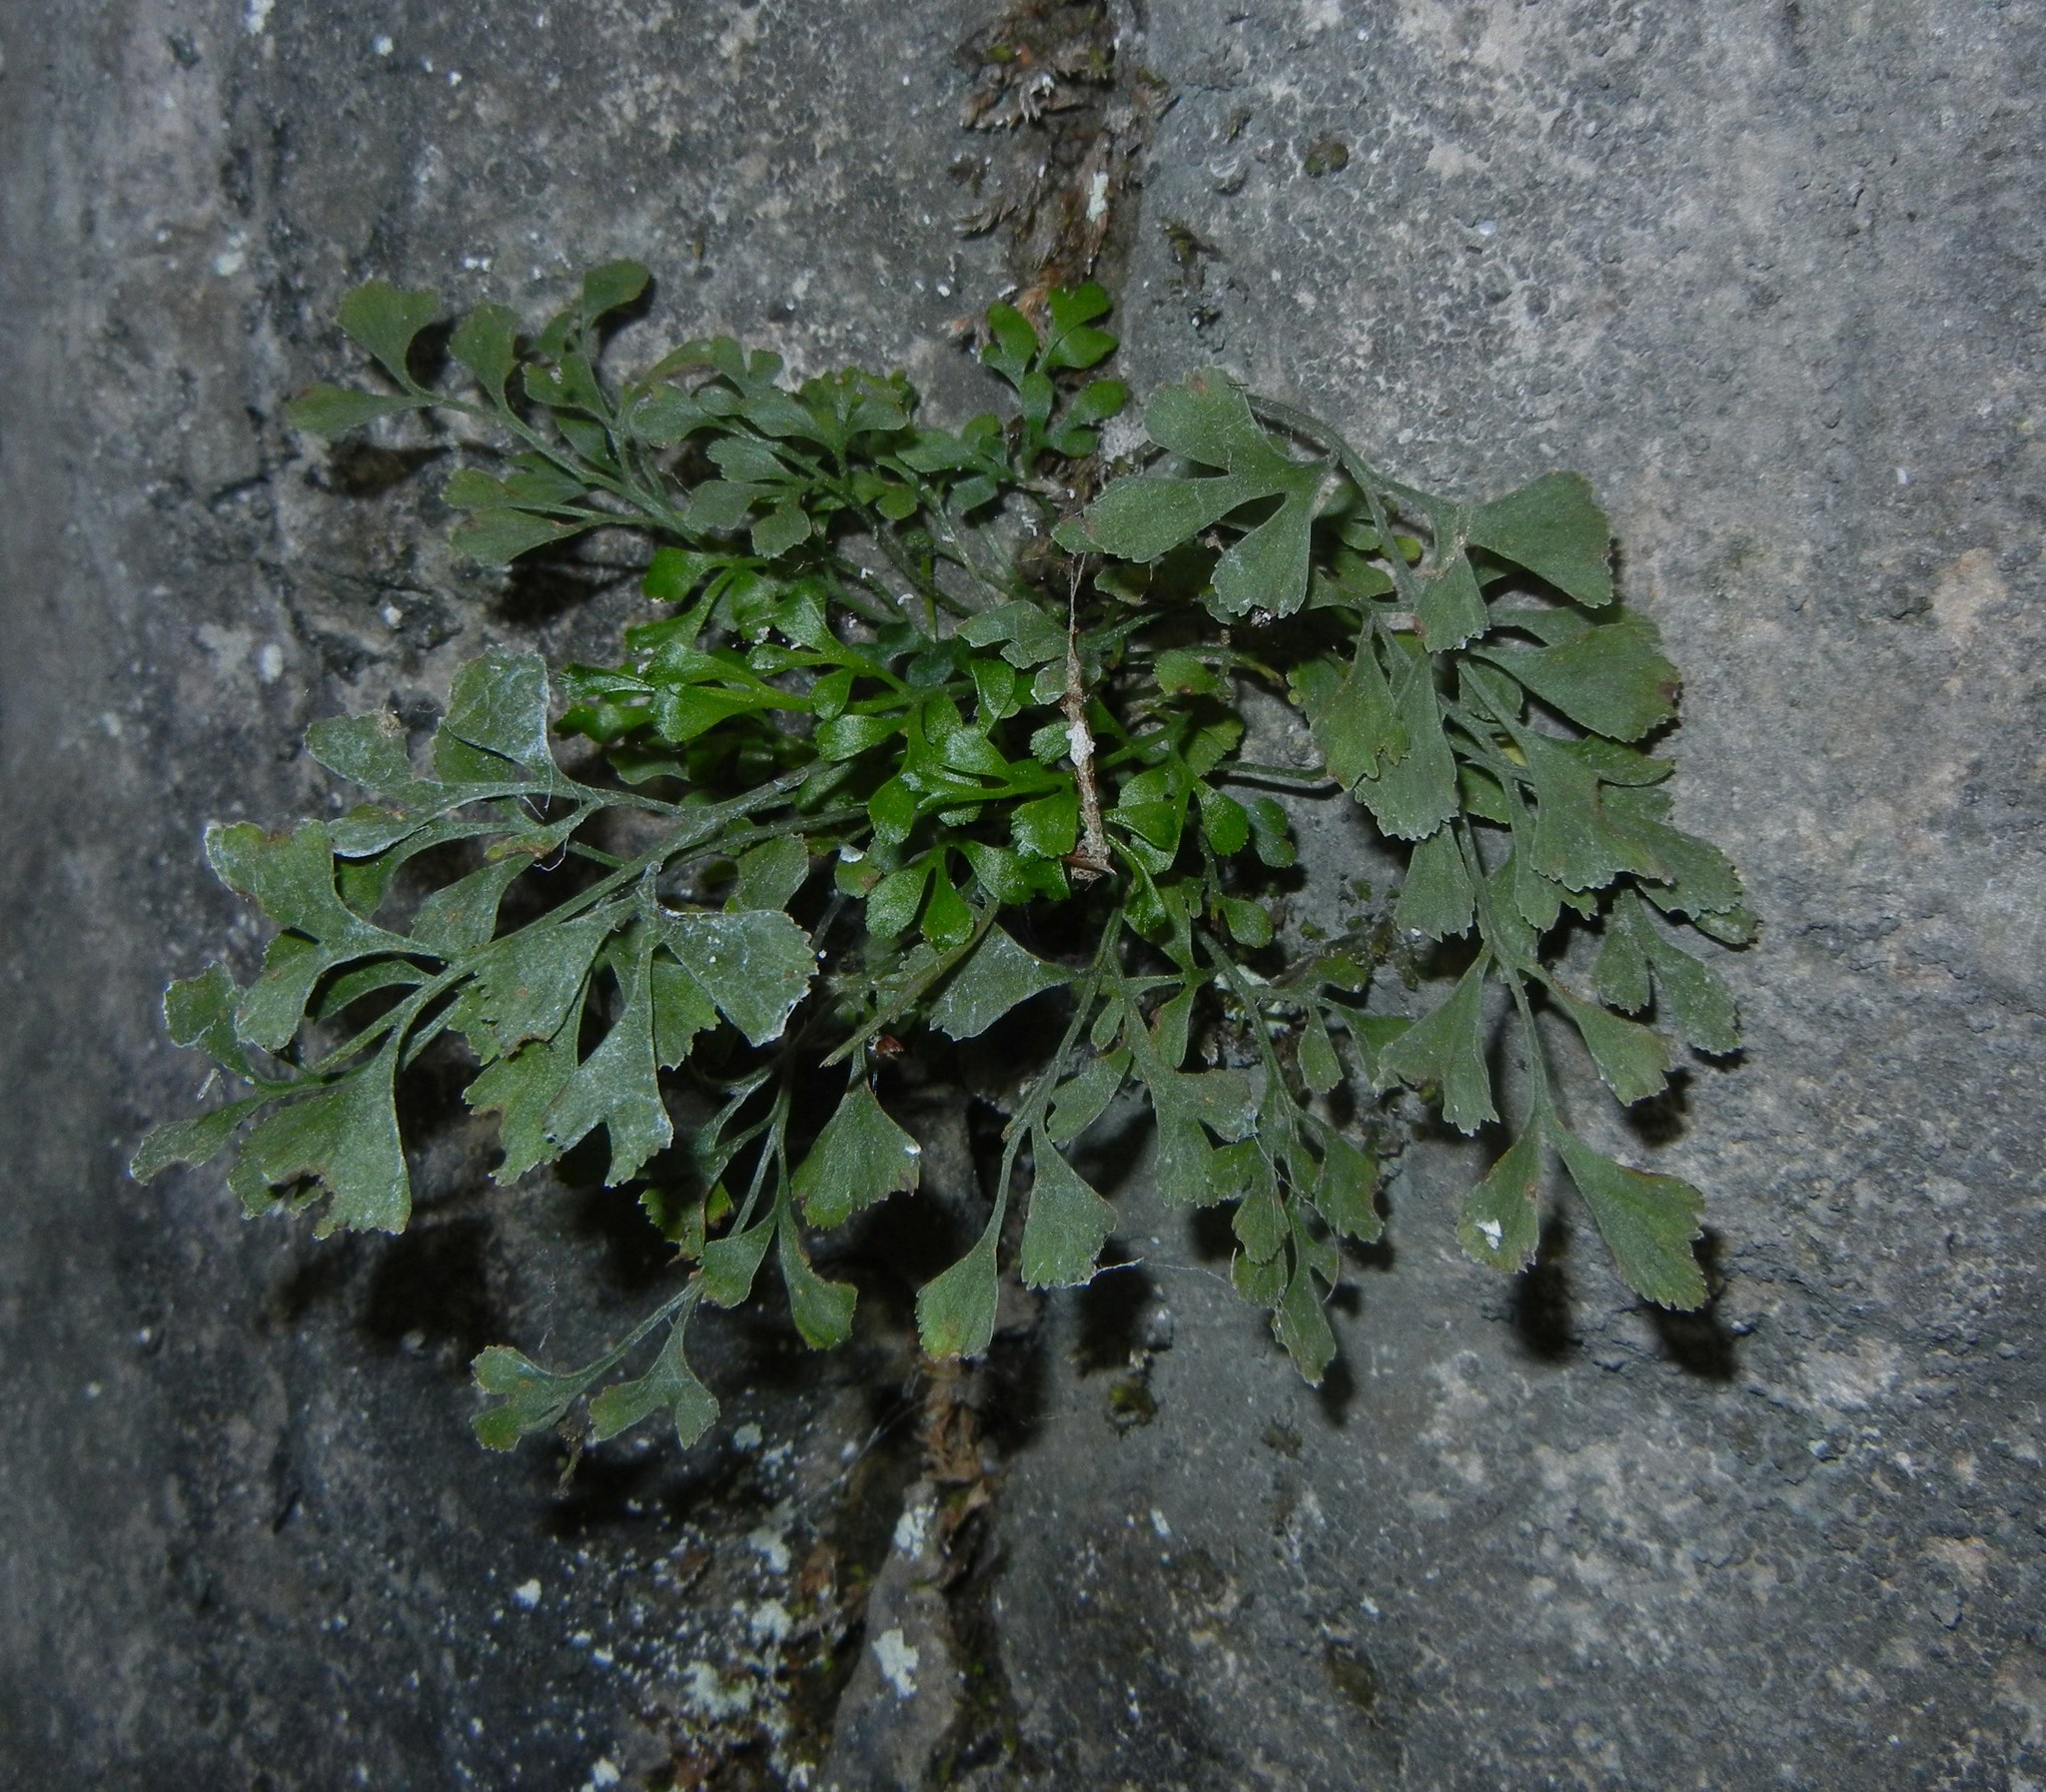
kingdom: Plantae
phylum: Tracheophyta
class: Polypodiopsida
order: Polypodiales
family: Aspleniaceae
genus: Asplenium
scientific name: Asplenium ruta-muraria
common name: Wall-rue
